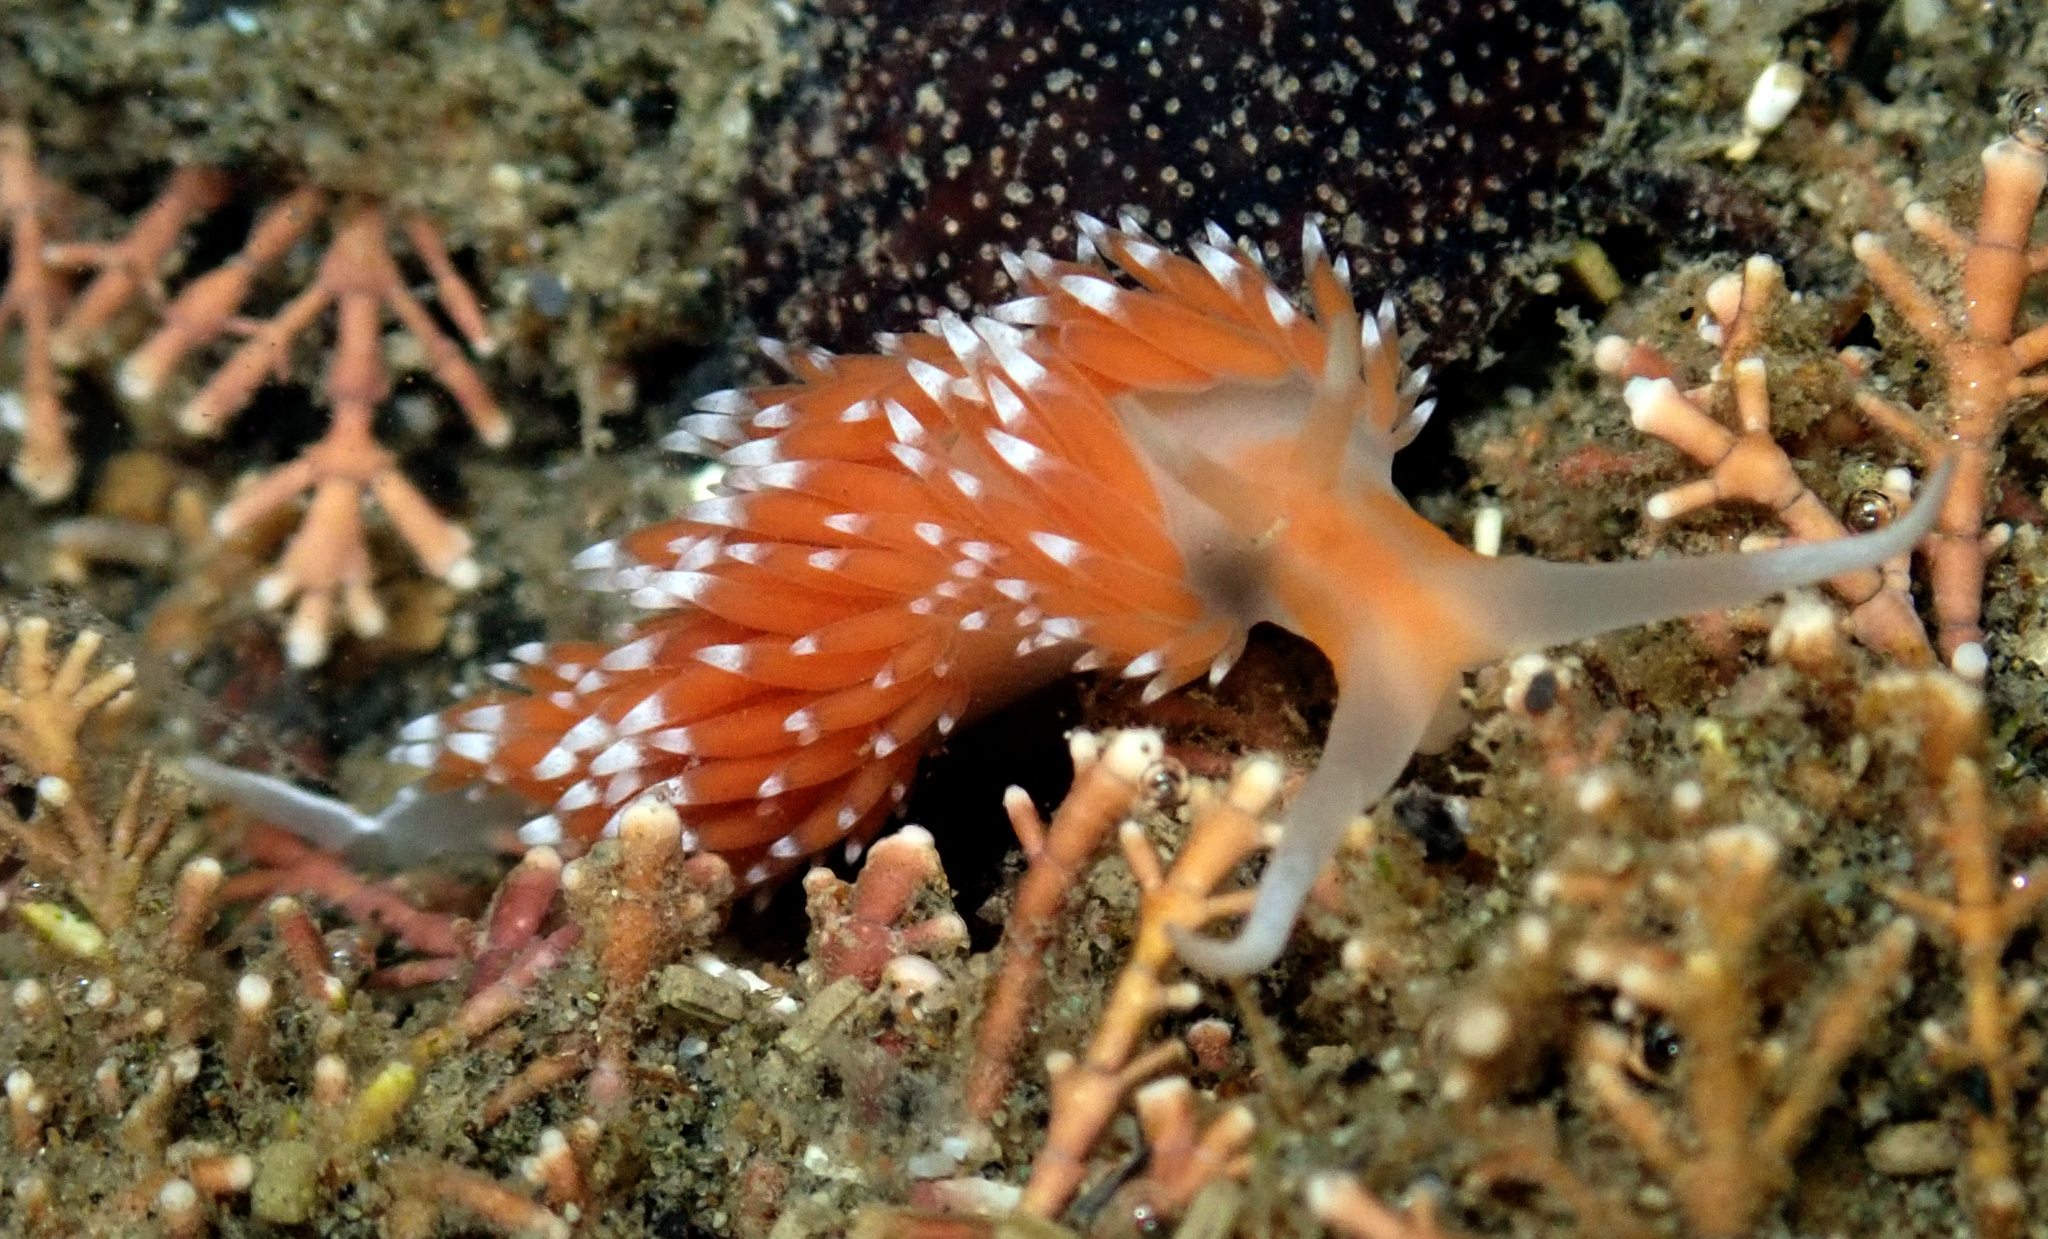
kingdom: Animalia
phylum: Mollusca
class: Gastropoda
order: Nudibranchia
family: Facelinidae
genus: Phidiana
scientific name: Phidiana milleri
